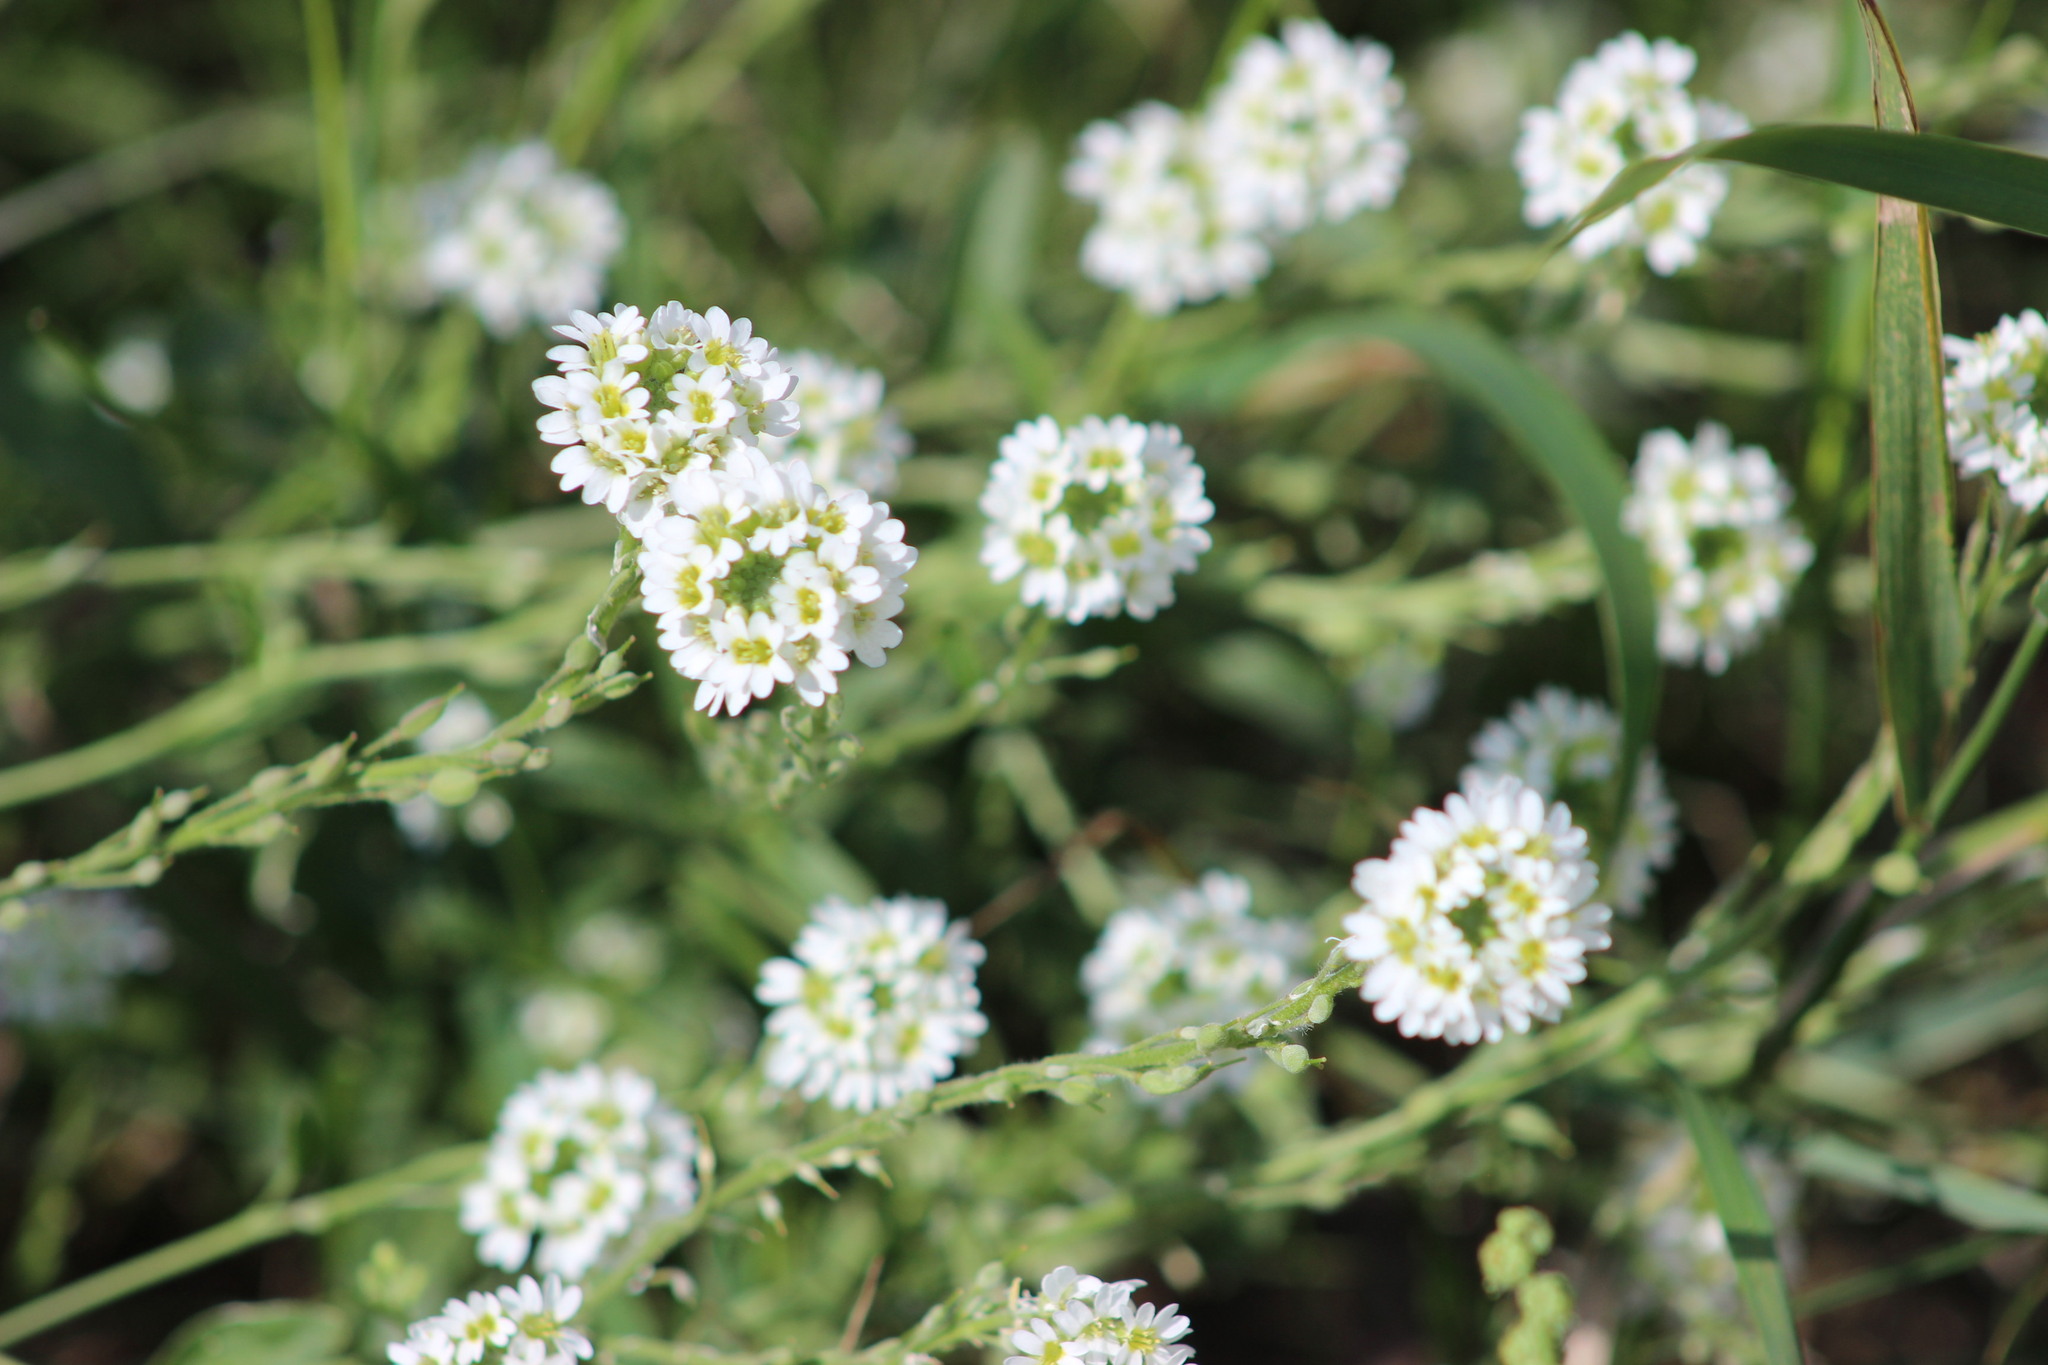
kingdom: Plantae
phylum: Tracheophyta
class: Magnoliopsida
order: Brassicales
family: Brassicaceae
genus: Berteroa
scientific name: Berteroa incana
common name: Hoary alison
